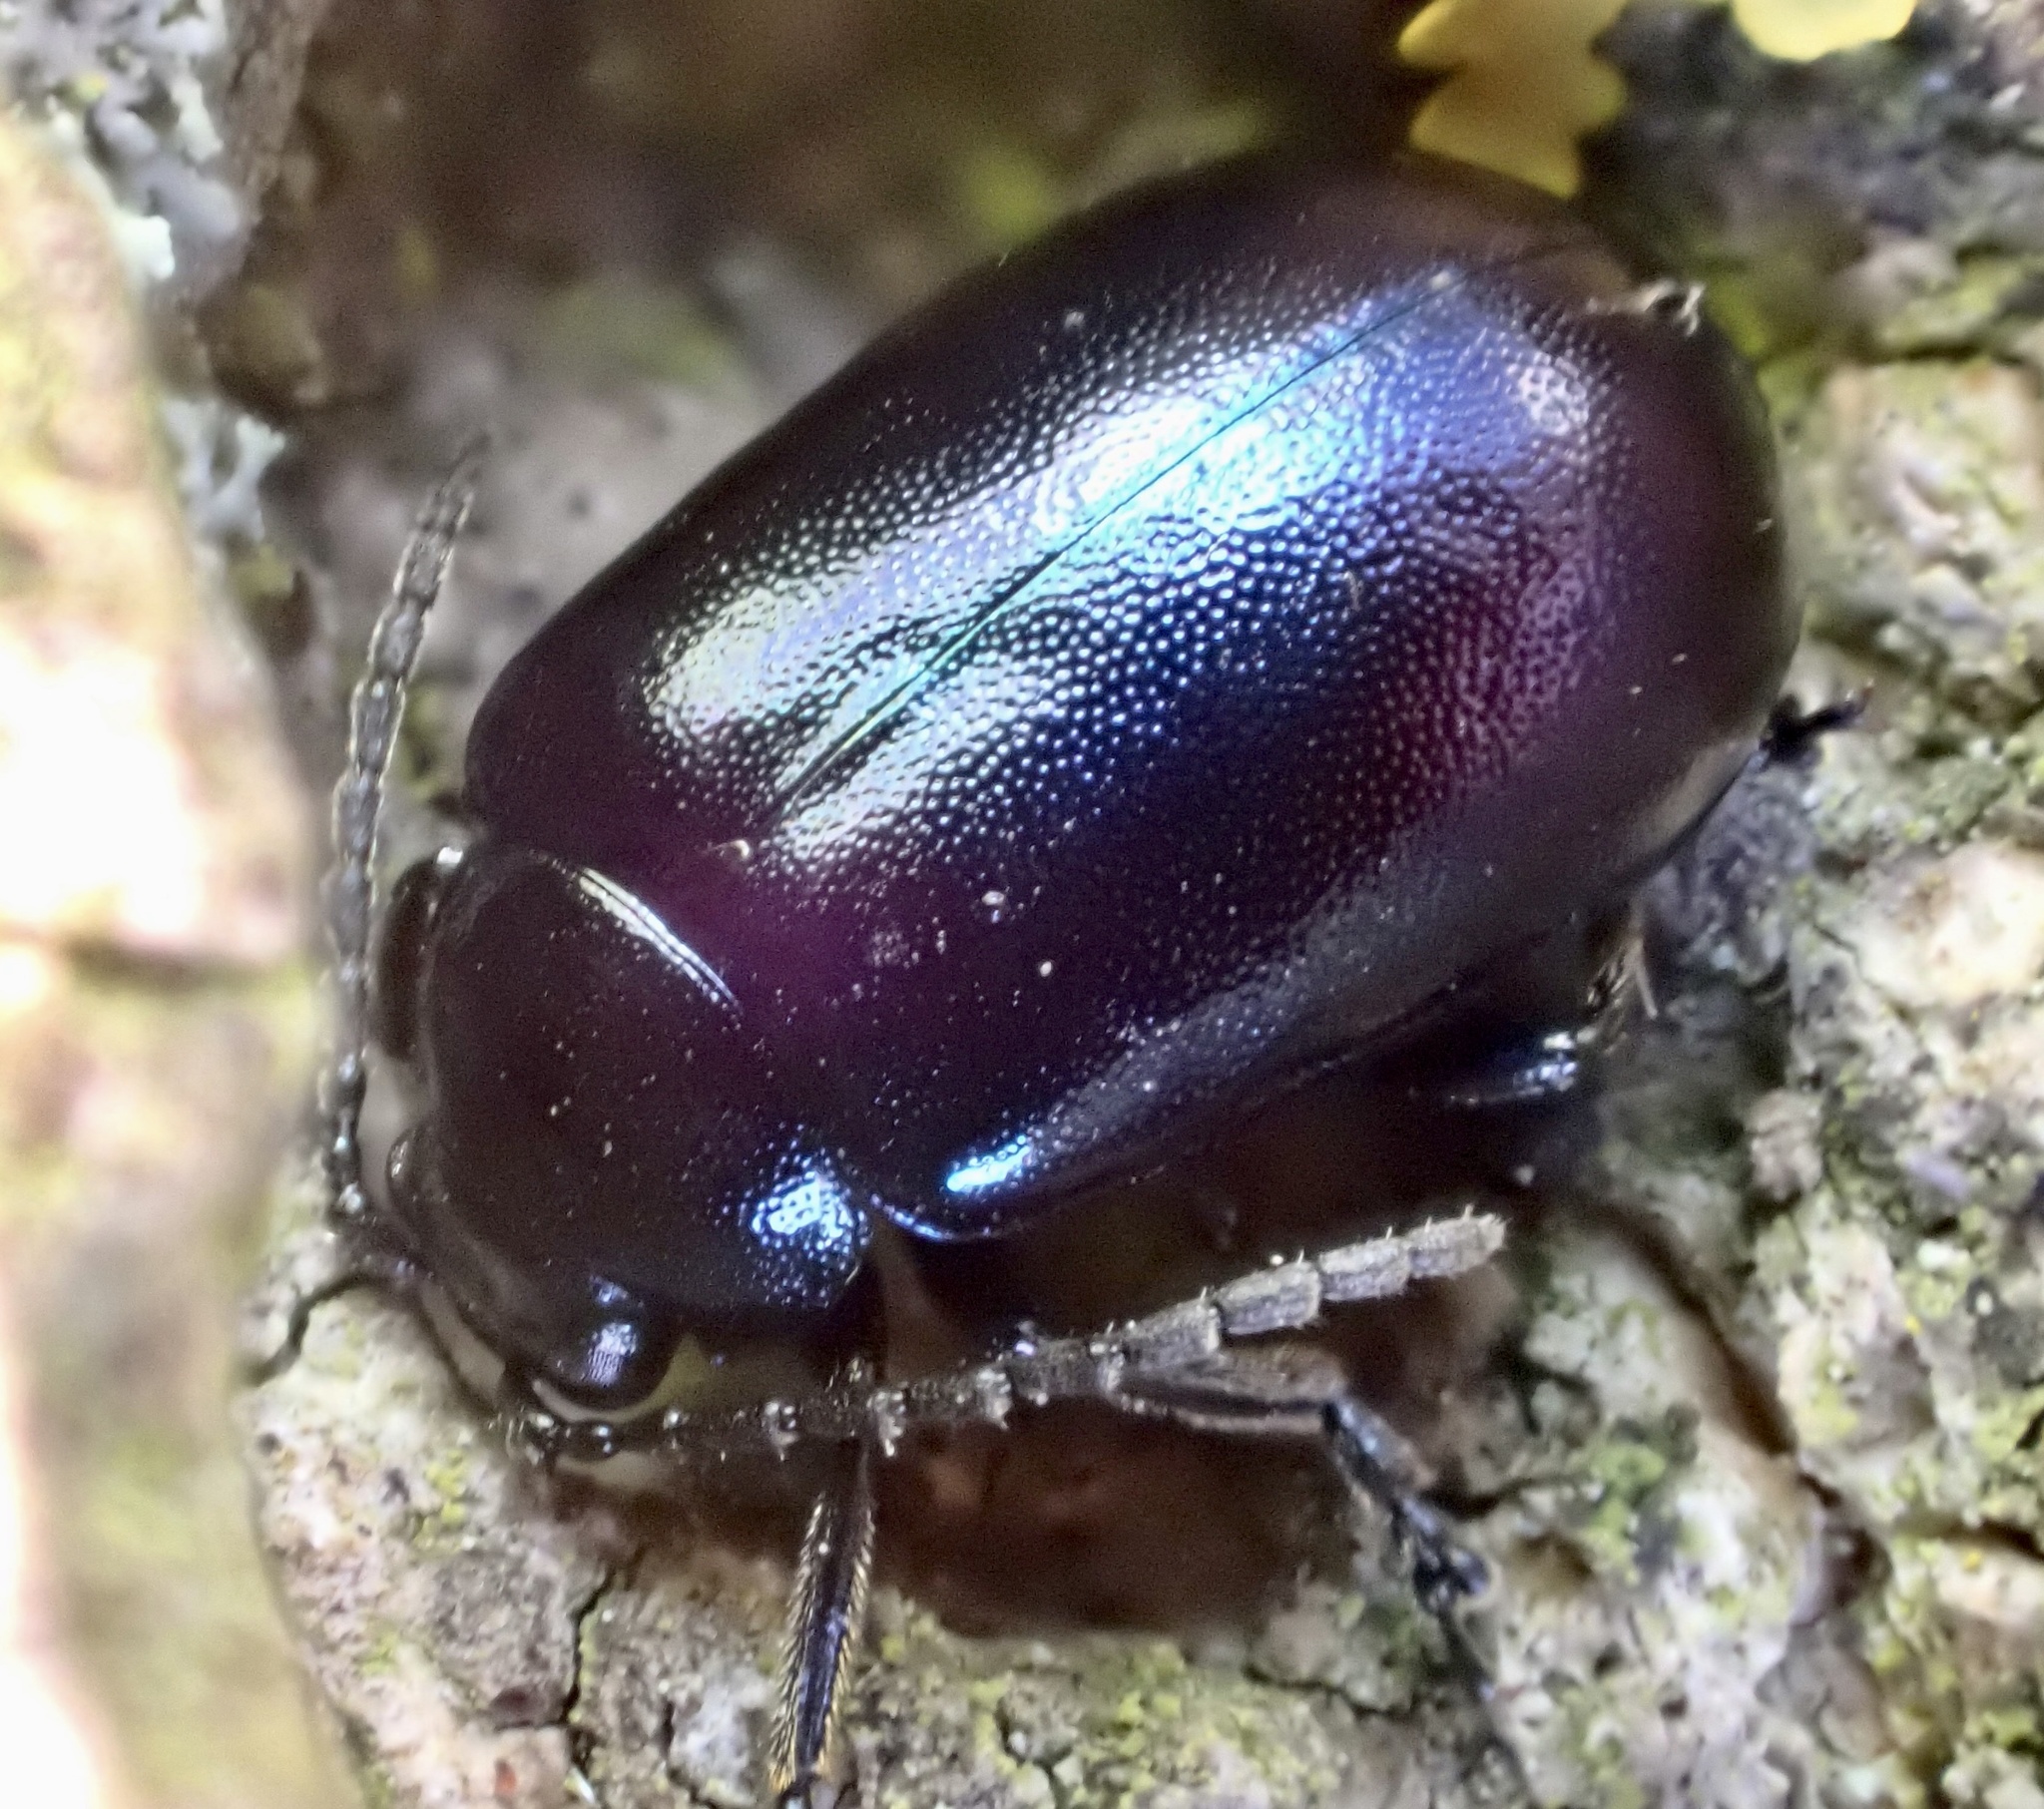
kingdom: Animalia
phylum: Arthropoda
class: Insecta
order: Coleoptera
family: Chrysomelidae
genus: Agelastica
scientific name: Agelastica alni
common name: Alder leaf beetle
